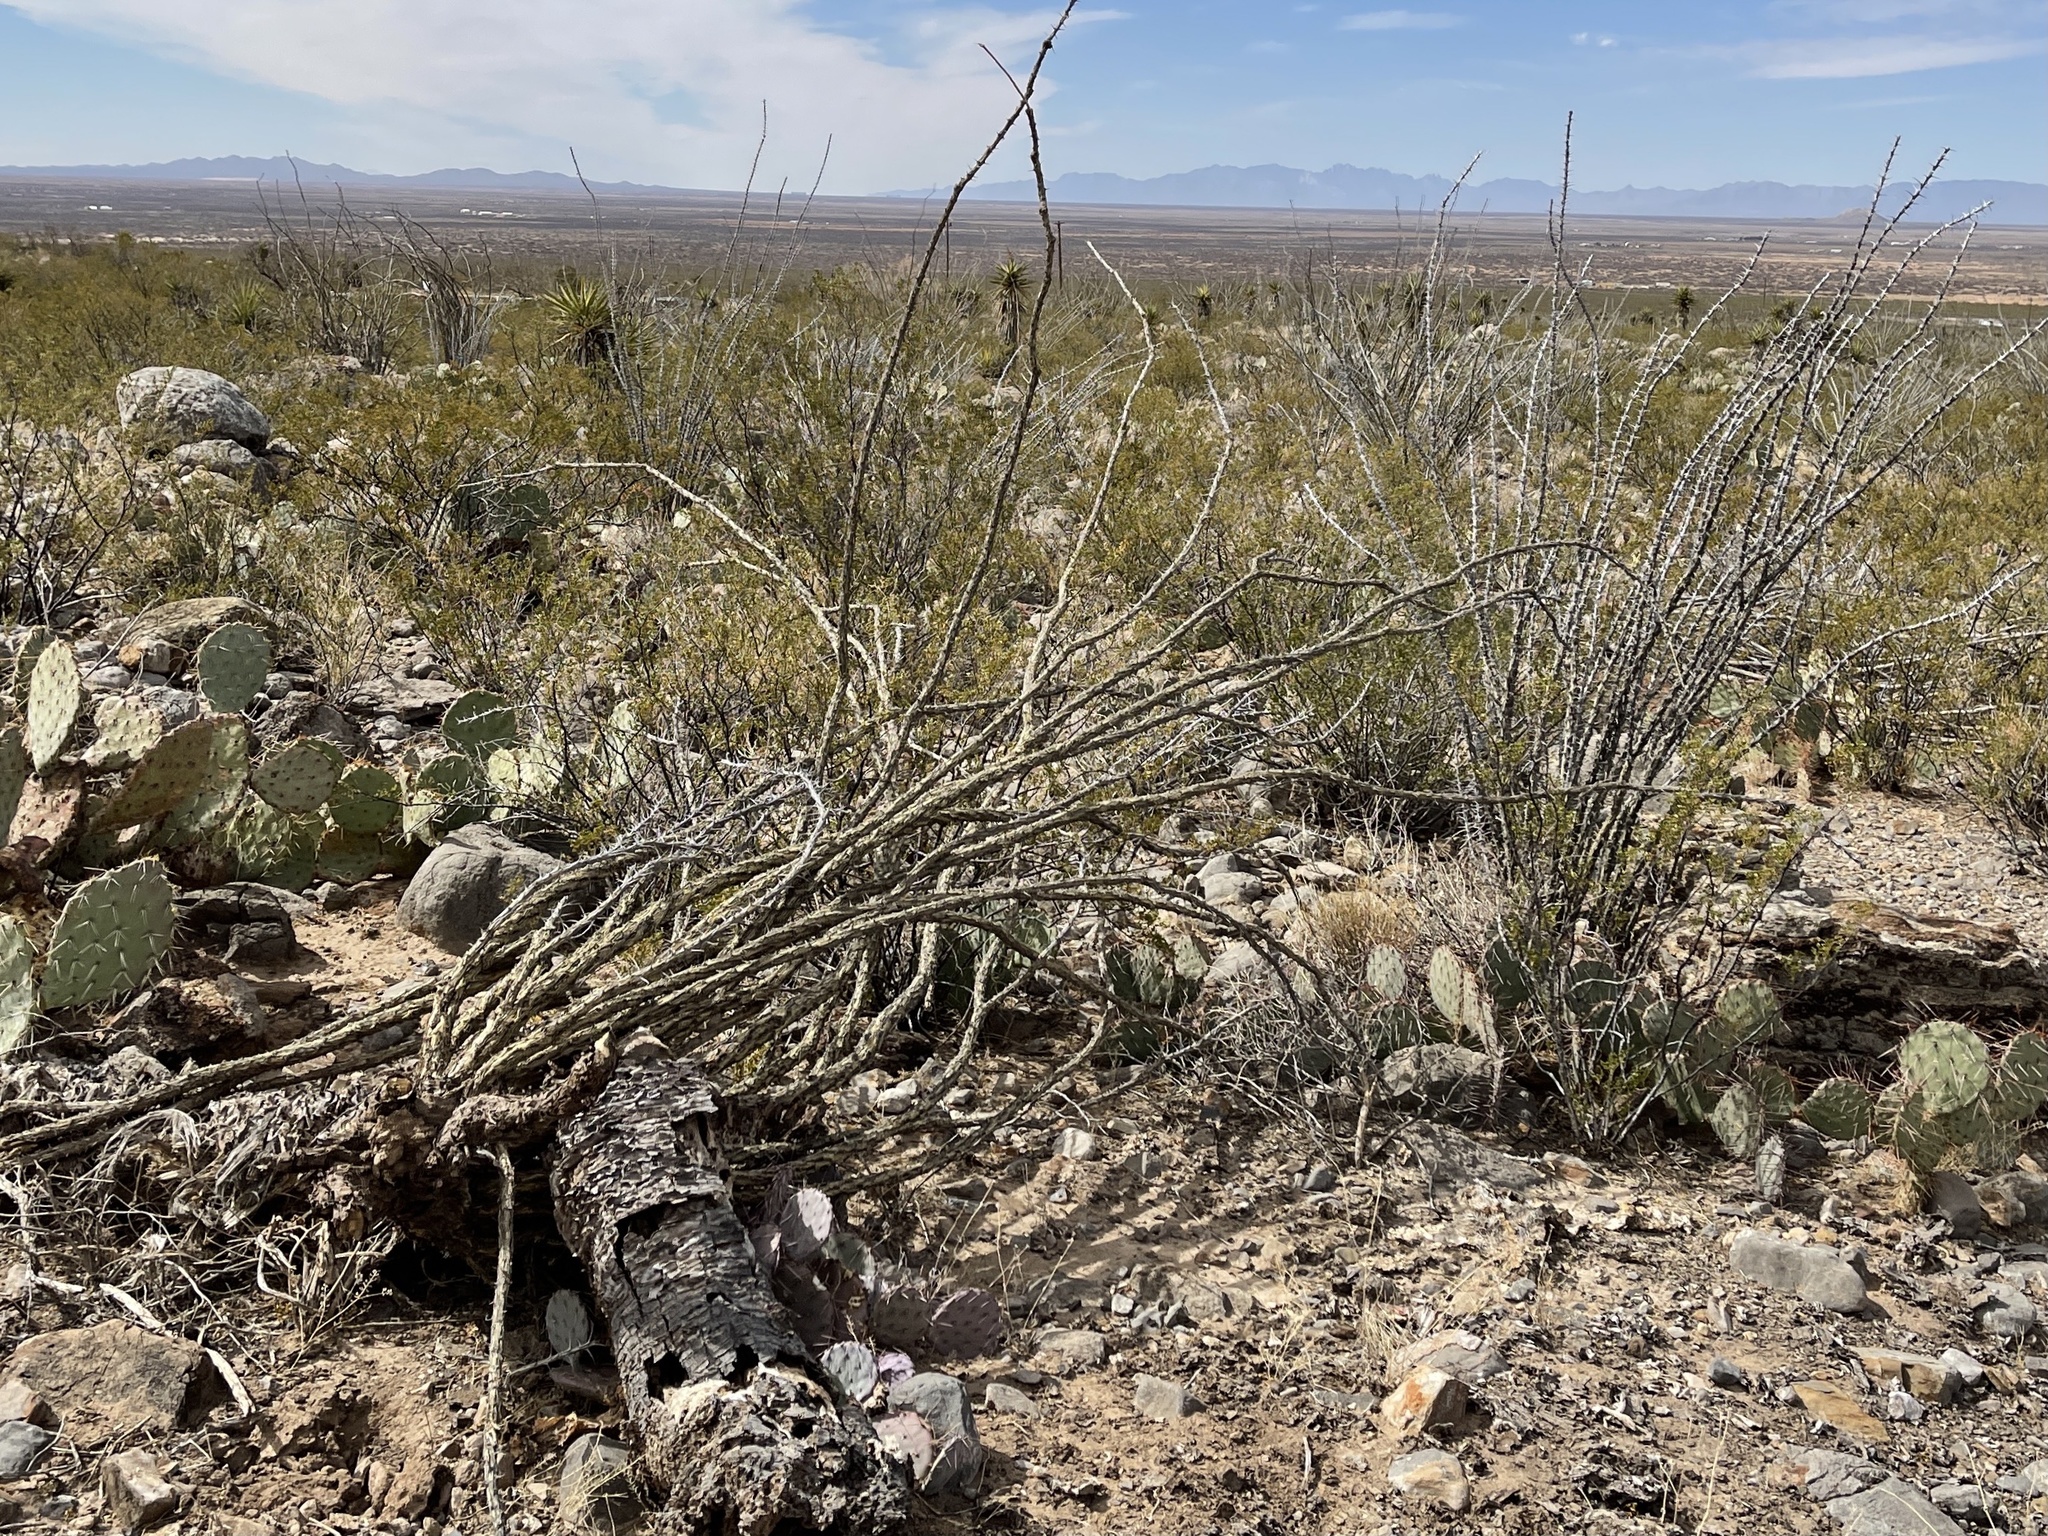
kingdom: Plantae
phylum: Tracheophyta
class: Magnoliopsida
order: Ericales
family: Fouquieriaceae
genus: Fouquieria
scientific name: Fouquieria splendens
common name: Vine-cactus
